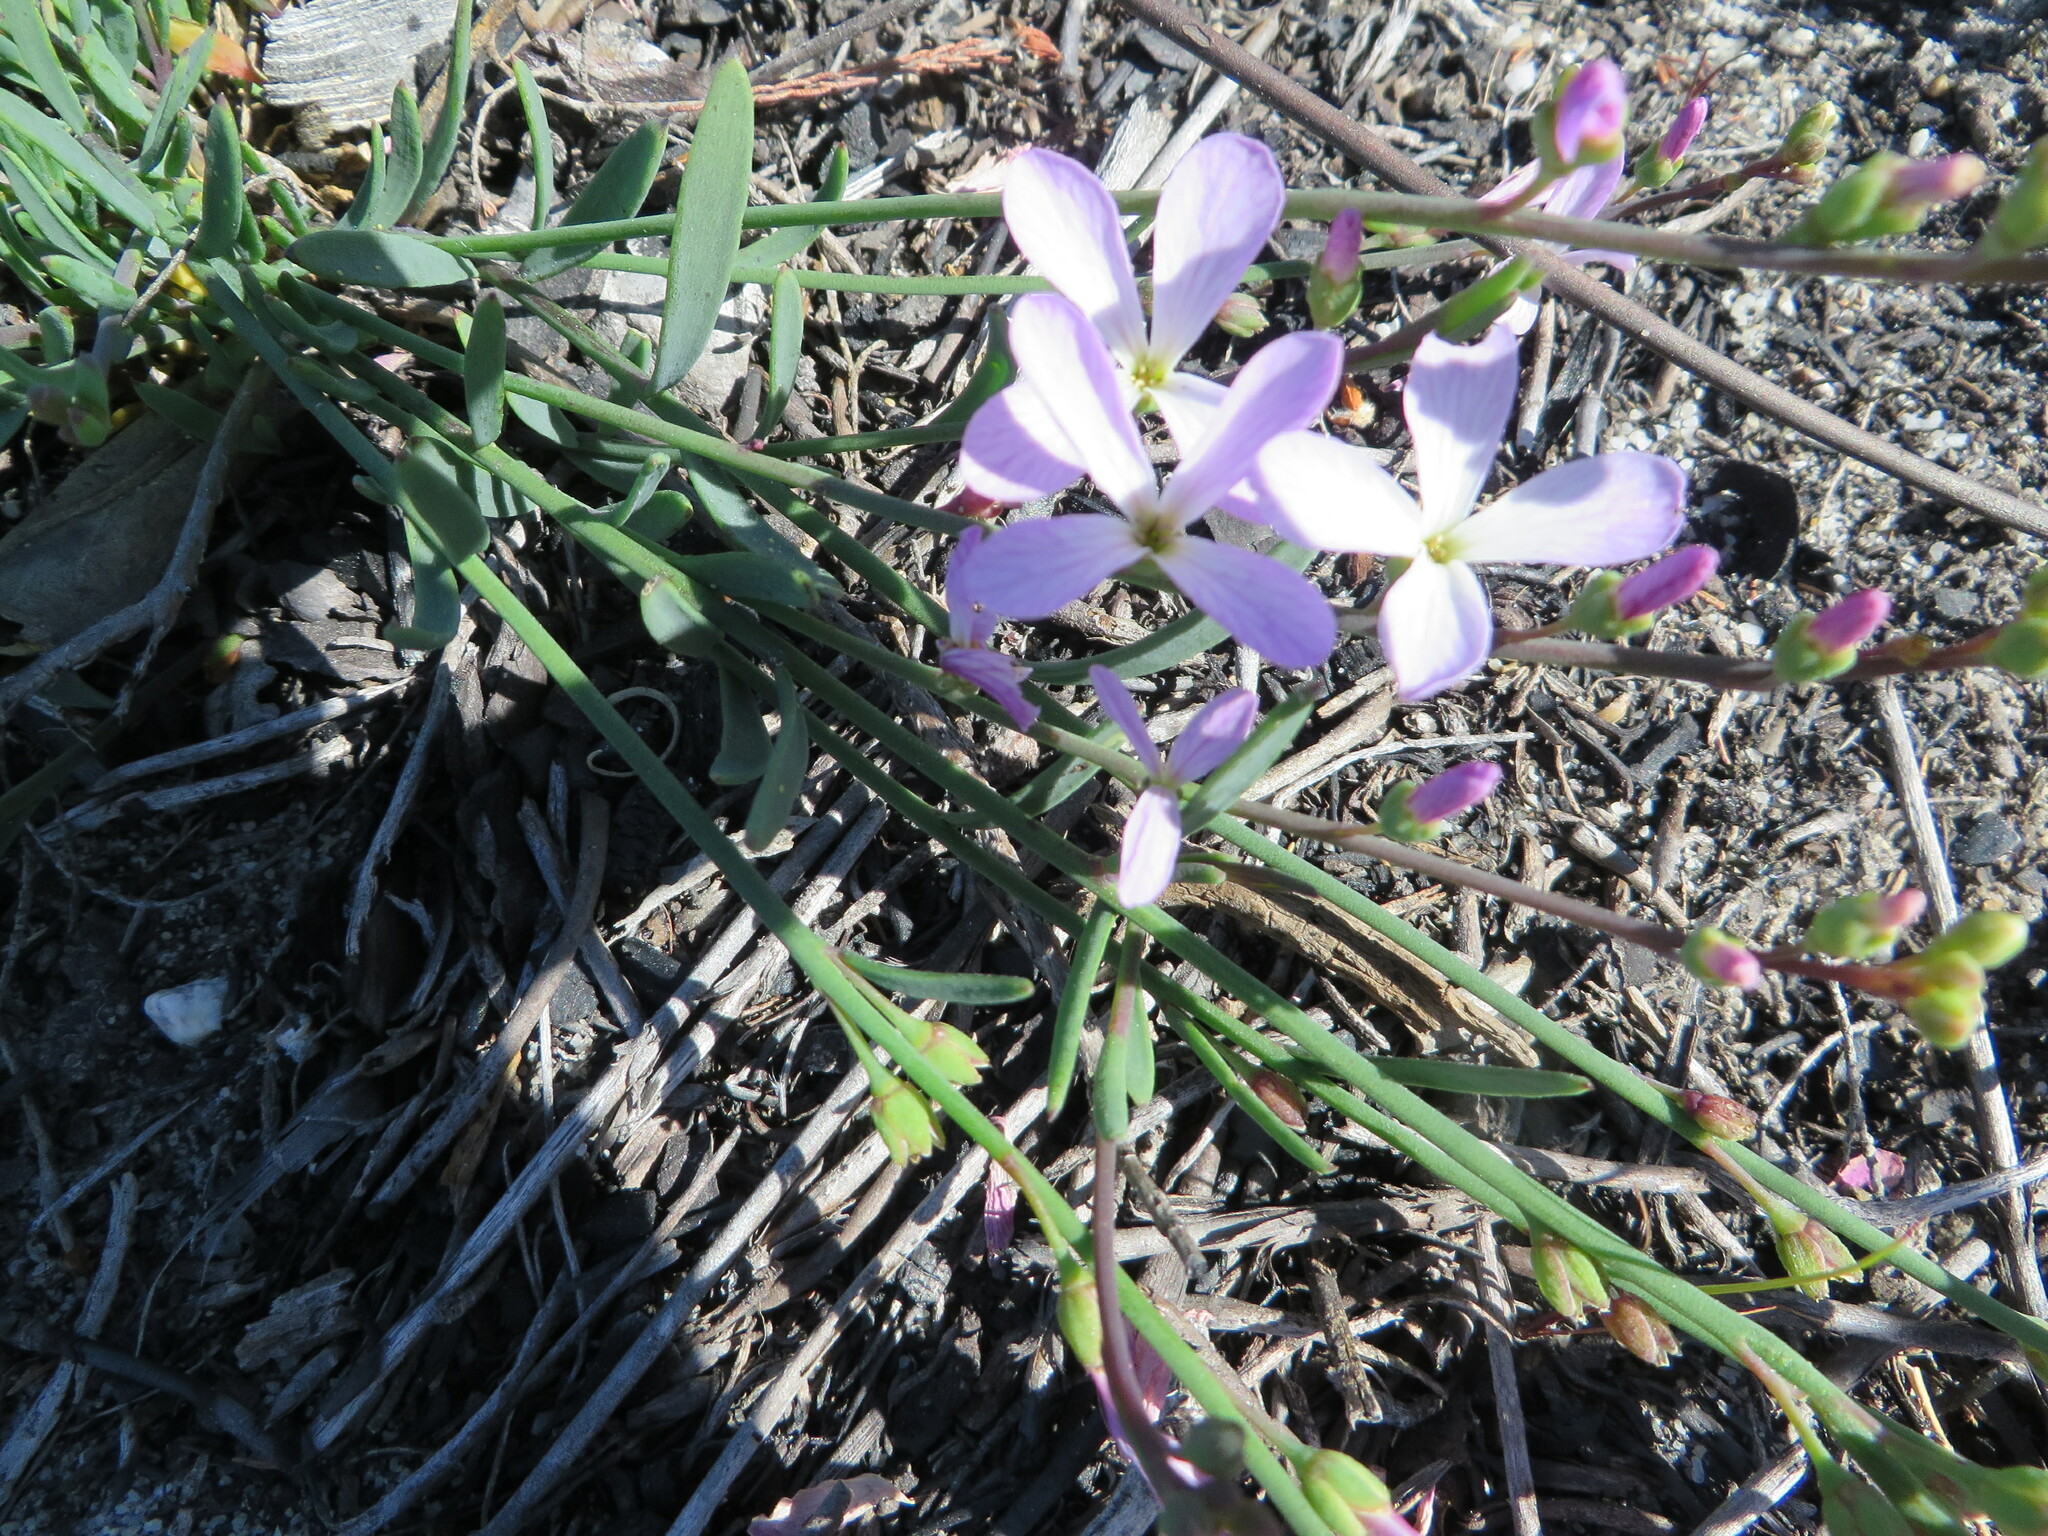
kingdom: Plantae
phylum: Tracheophyta
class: Magnoliopsida
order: Brassicales
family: Brassicaceae
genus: Heliophila
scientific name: Heliophila juncea
